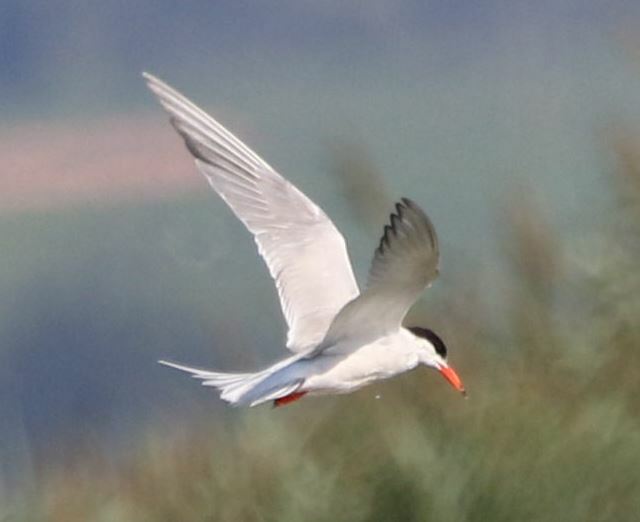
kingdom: Animalia
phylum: Chordata
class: Aves
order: Charadriiformes
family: Laridae
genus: Sterna
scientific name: Sterna hirundo
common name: Common tern
